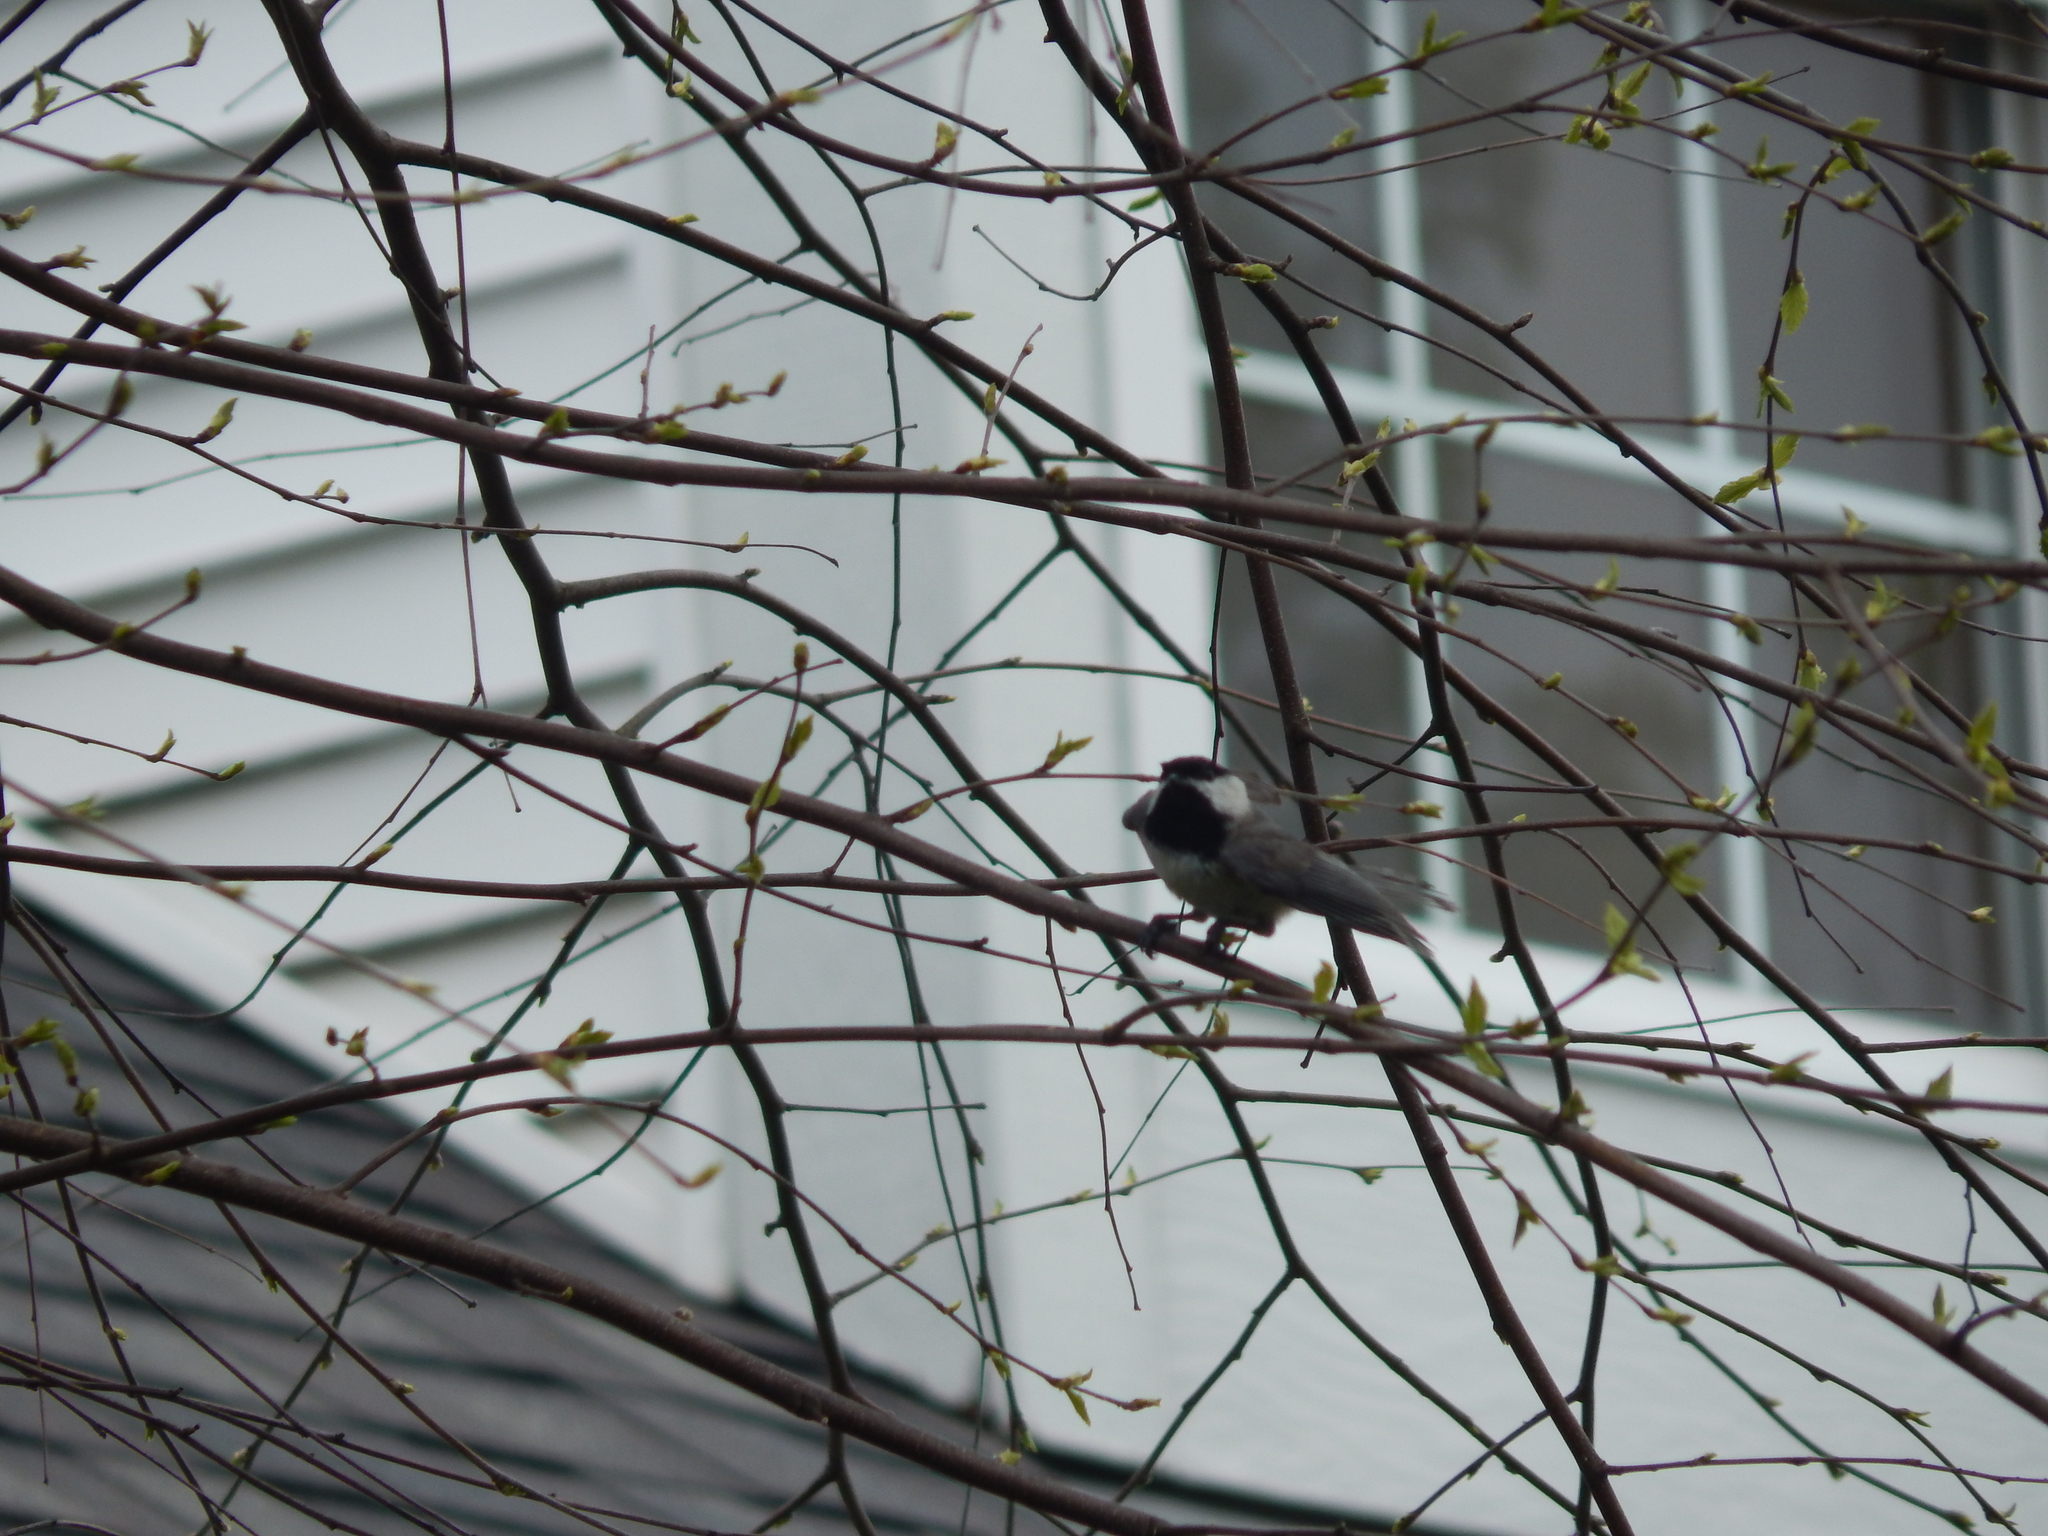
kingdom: Animalia
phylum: Chordata
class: Aves
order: Passeriformes
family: Paridae
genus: Poecile
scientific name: Poecile carolinensis
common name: Carolina chickadee
